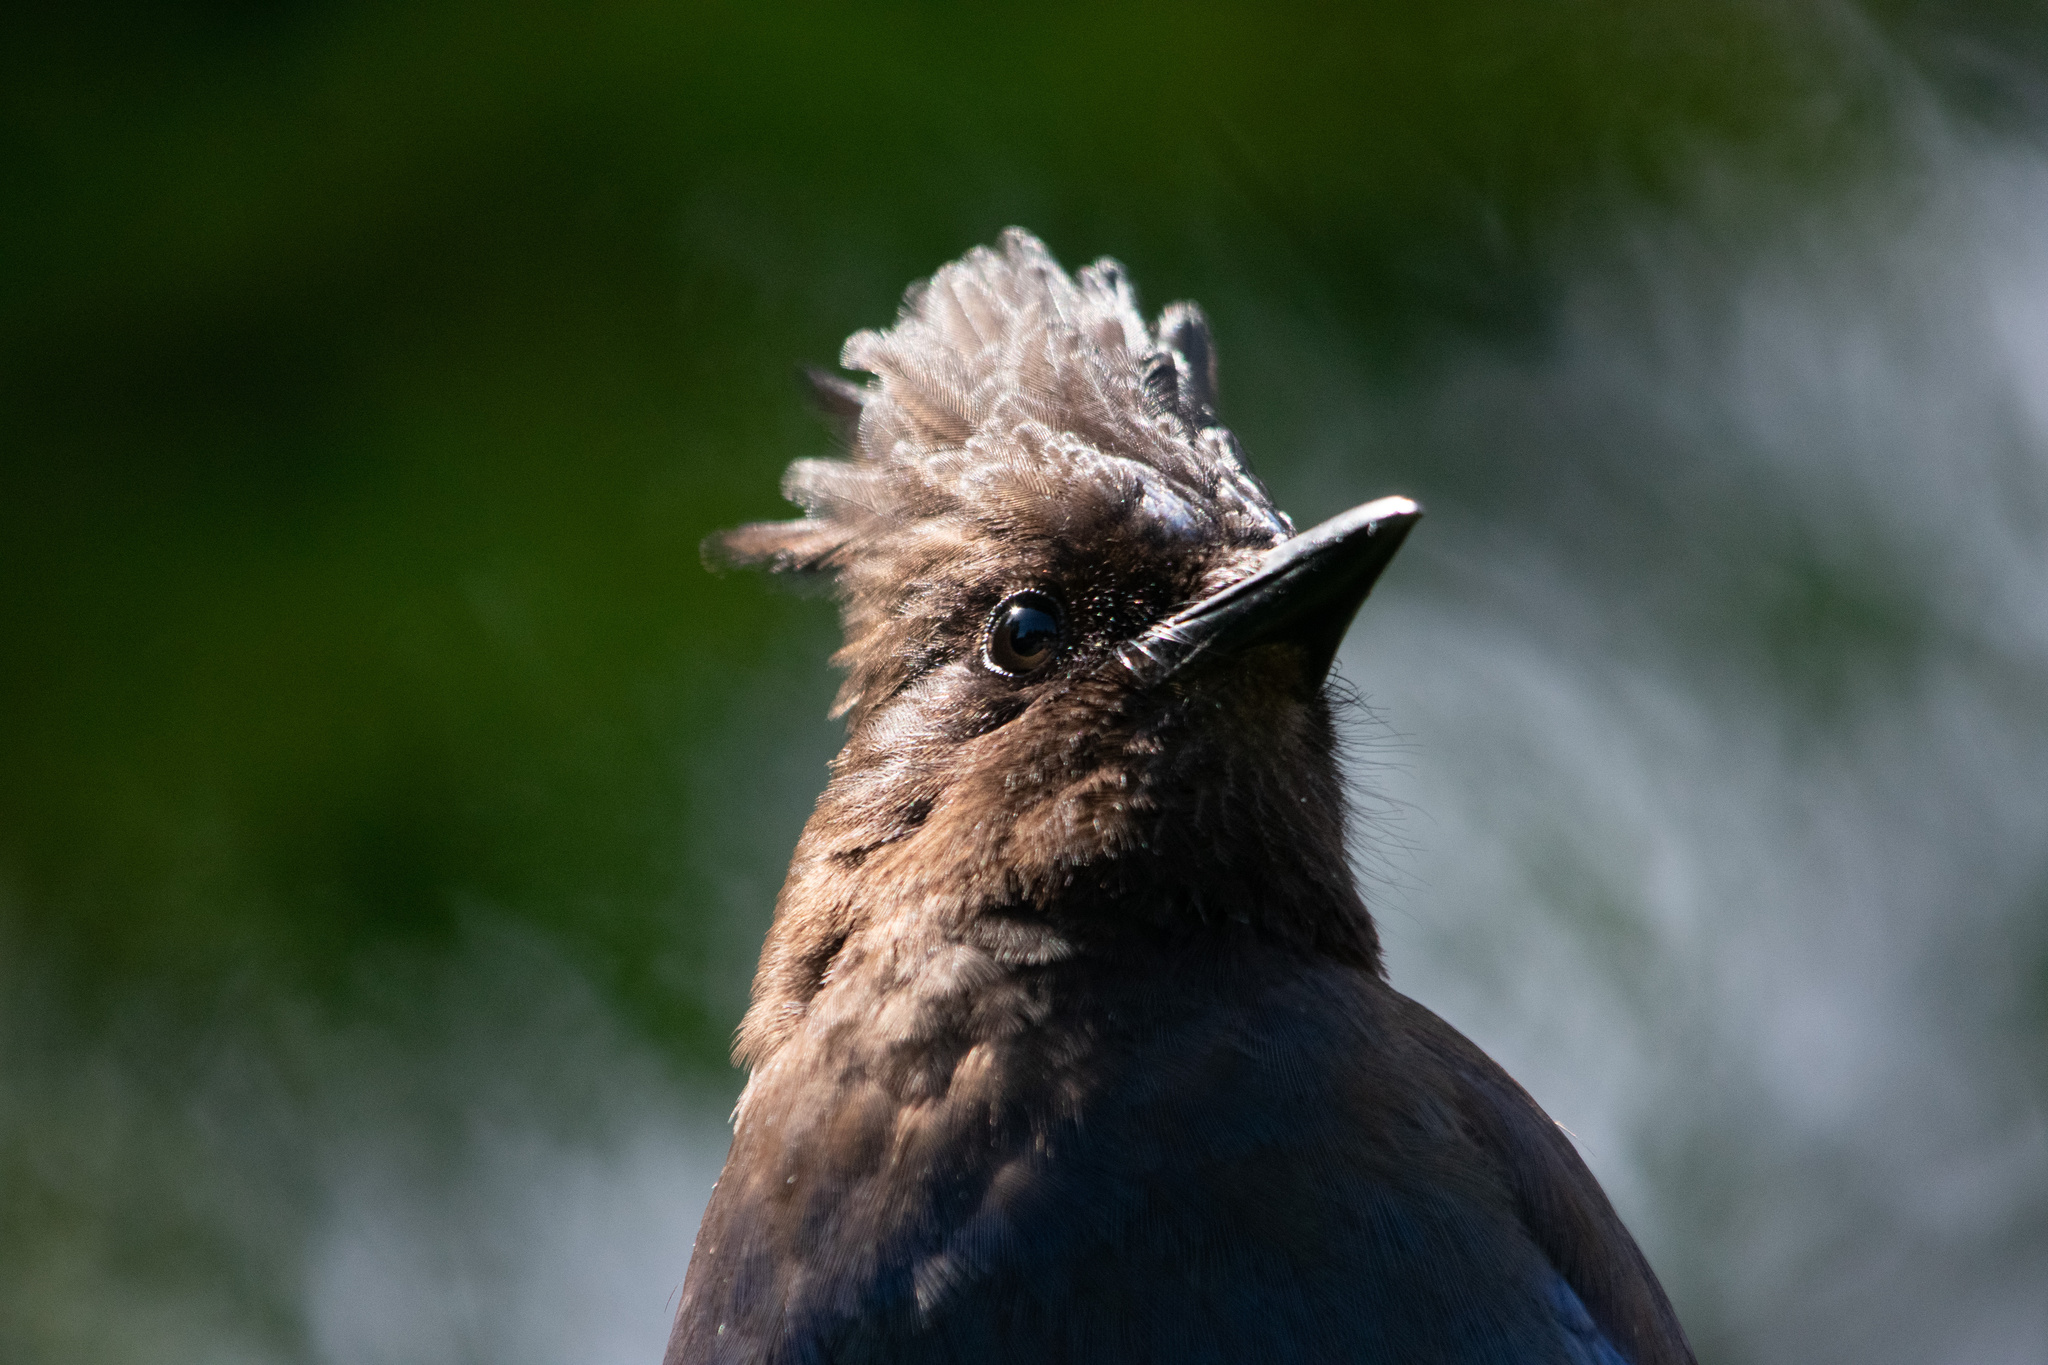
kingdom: Animalia
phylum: Chordata
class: Aves
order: Passeriformes
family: Corvidae
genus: Cyanocitta
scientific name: Cyanocitta stelleri
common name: Steller's jay
